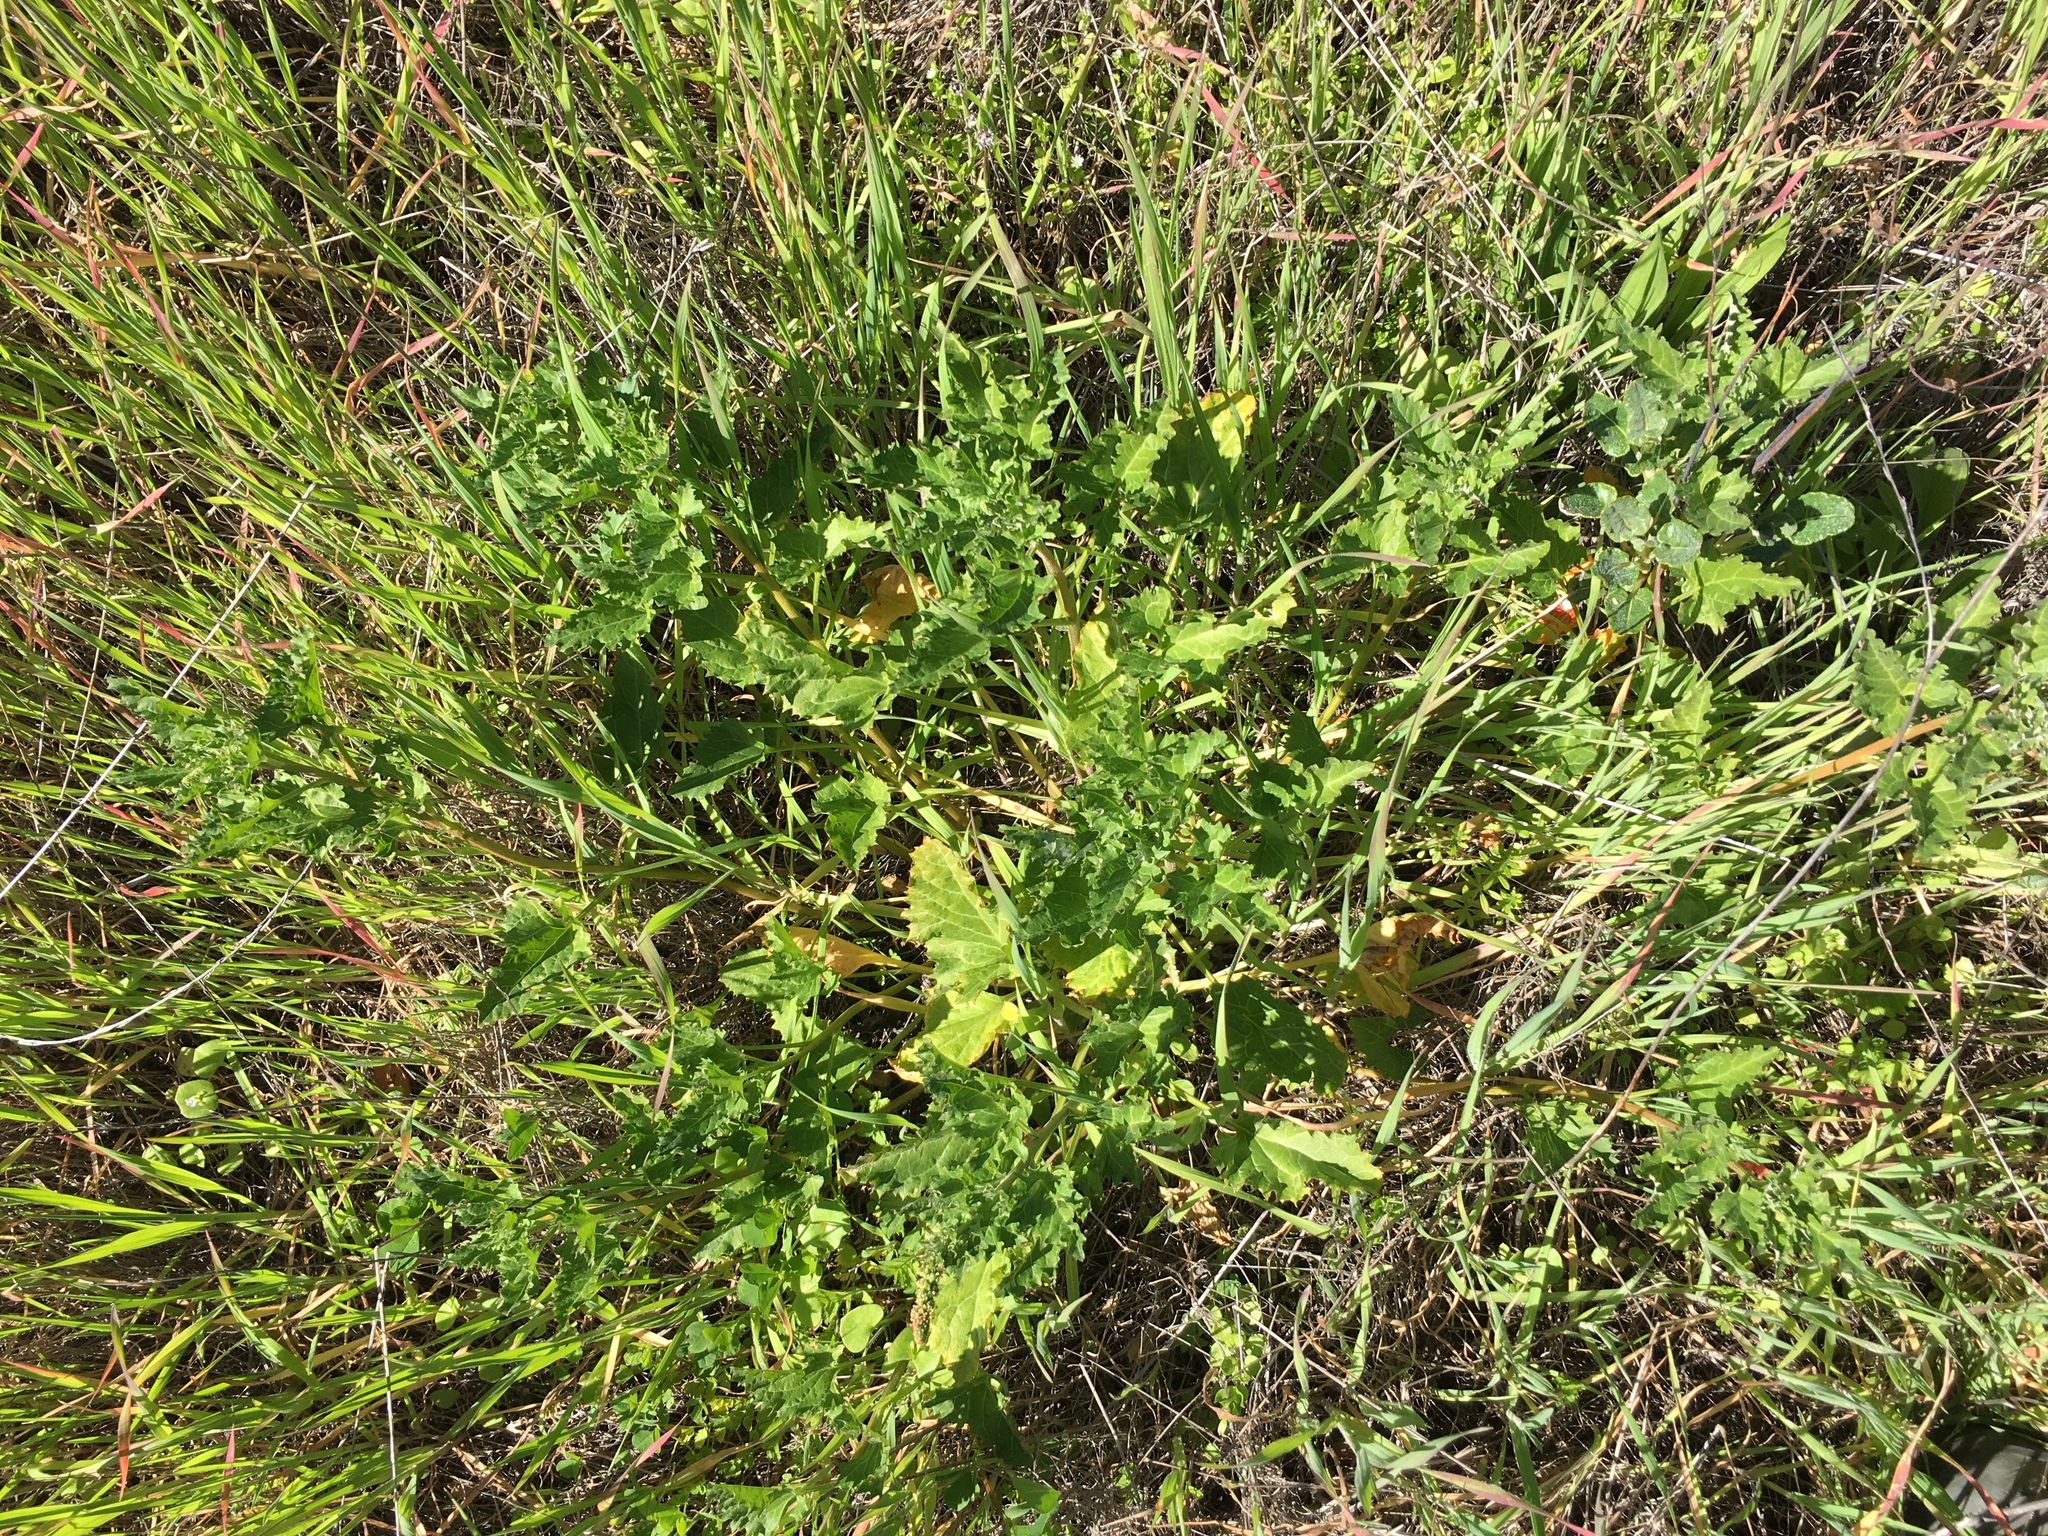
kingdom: Plantae
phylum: Tracheophyta
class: Magnoliopsida
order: Caryophyllales
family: Amaranthaceae
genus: Blitum
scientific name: Blitum californicum
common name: California goosefoot
